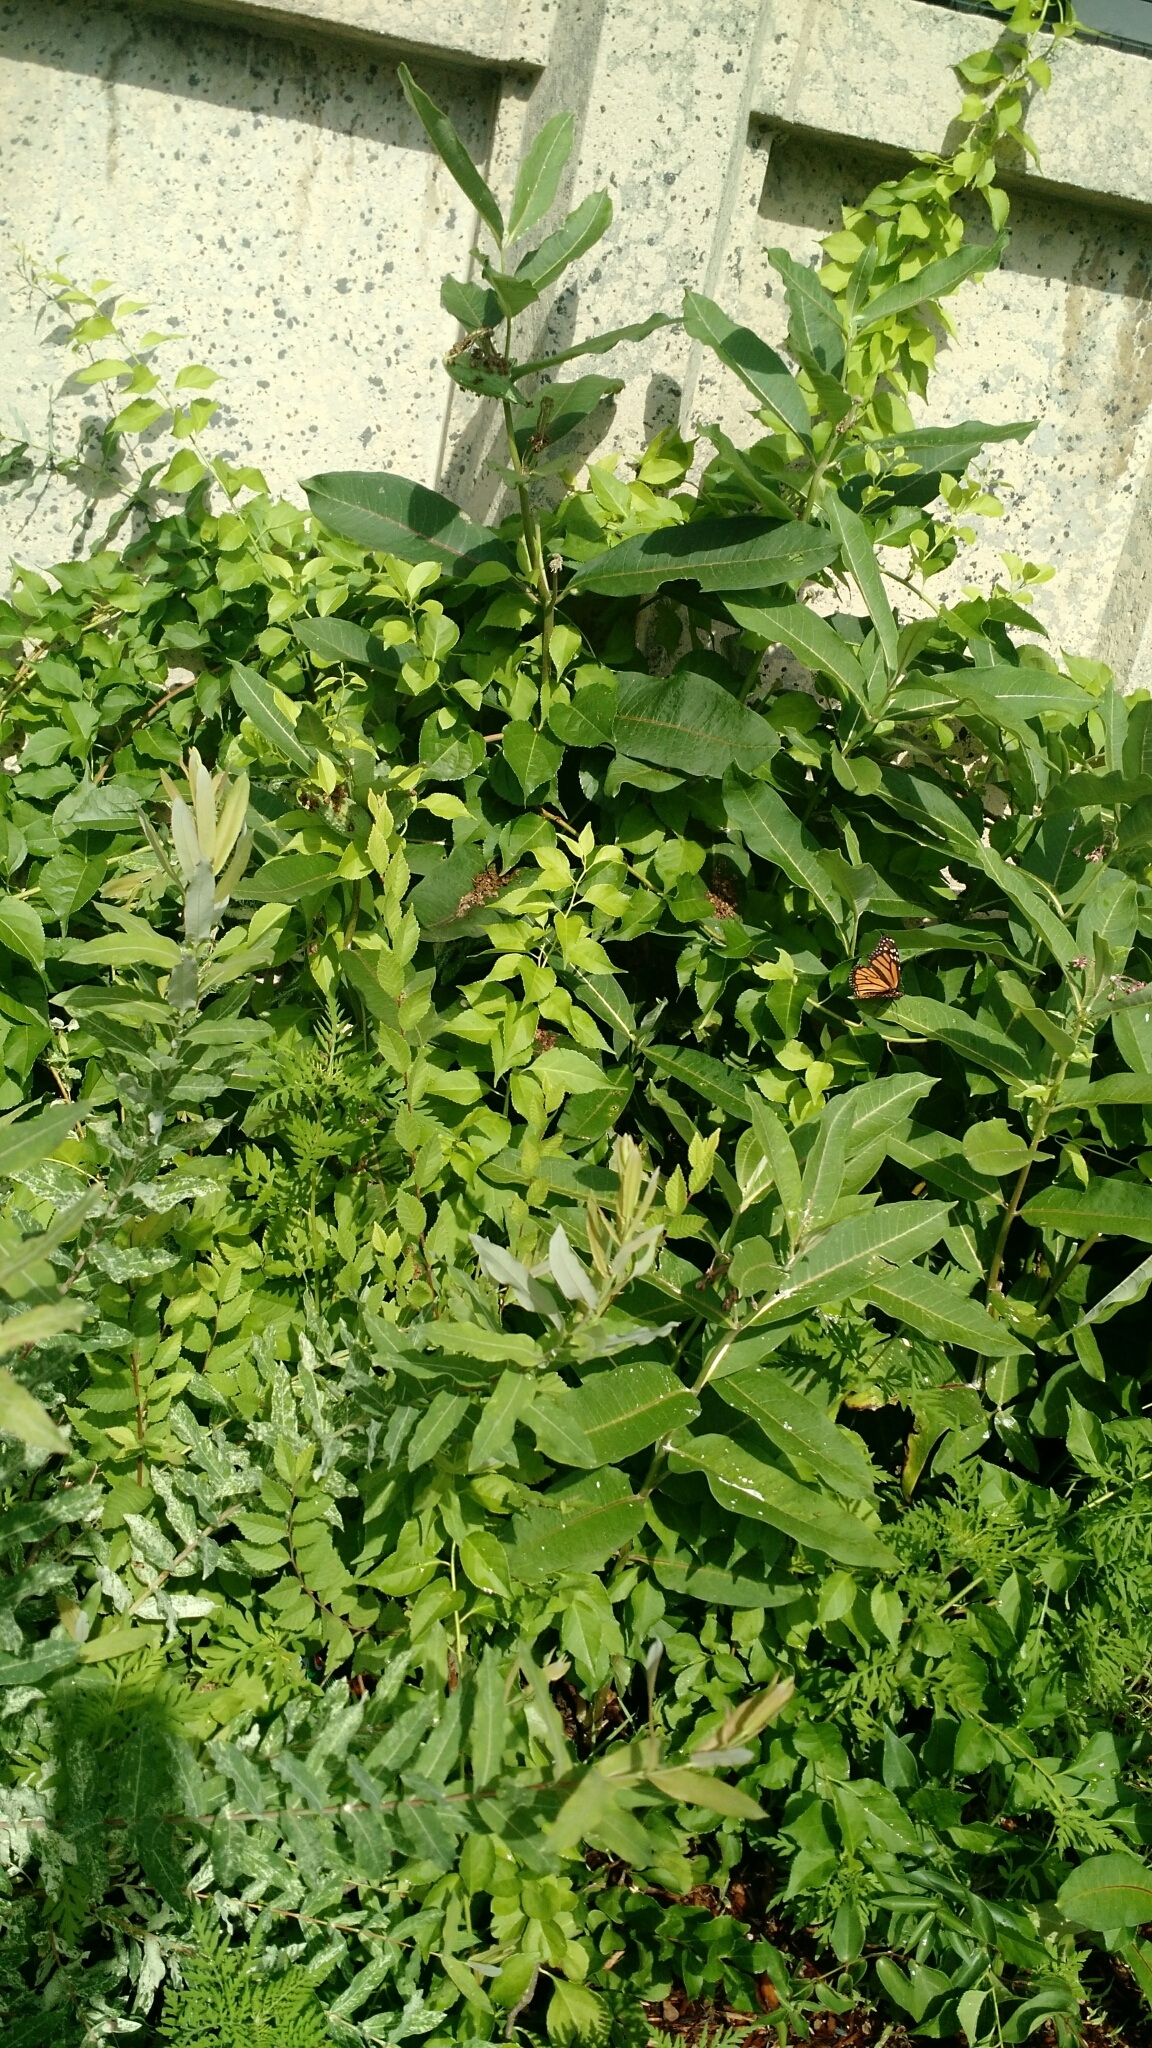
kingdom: Animalia
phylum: Arthropoda
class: Insecta
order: Lepidoptera
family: Nymphalidae
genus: Danaus
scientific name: Danaus plexippus
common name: Monarch
